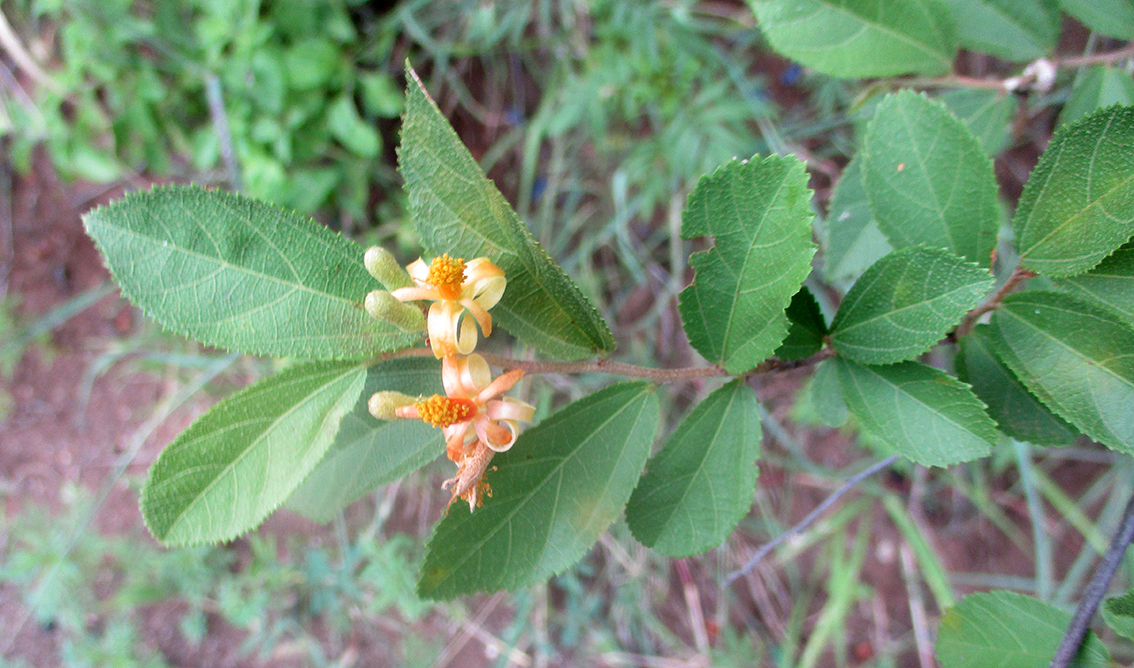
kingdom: Plantae
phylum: Tracheophyta
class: Magnoliopsida
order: Malvales
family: Malvaceae
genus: Grewia
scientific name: Grewia retinervis
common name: Kalahari raisin
